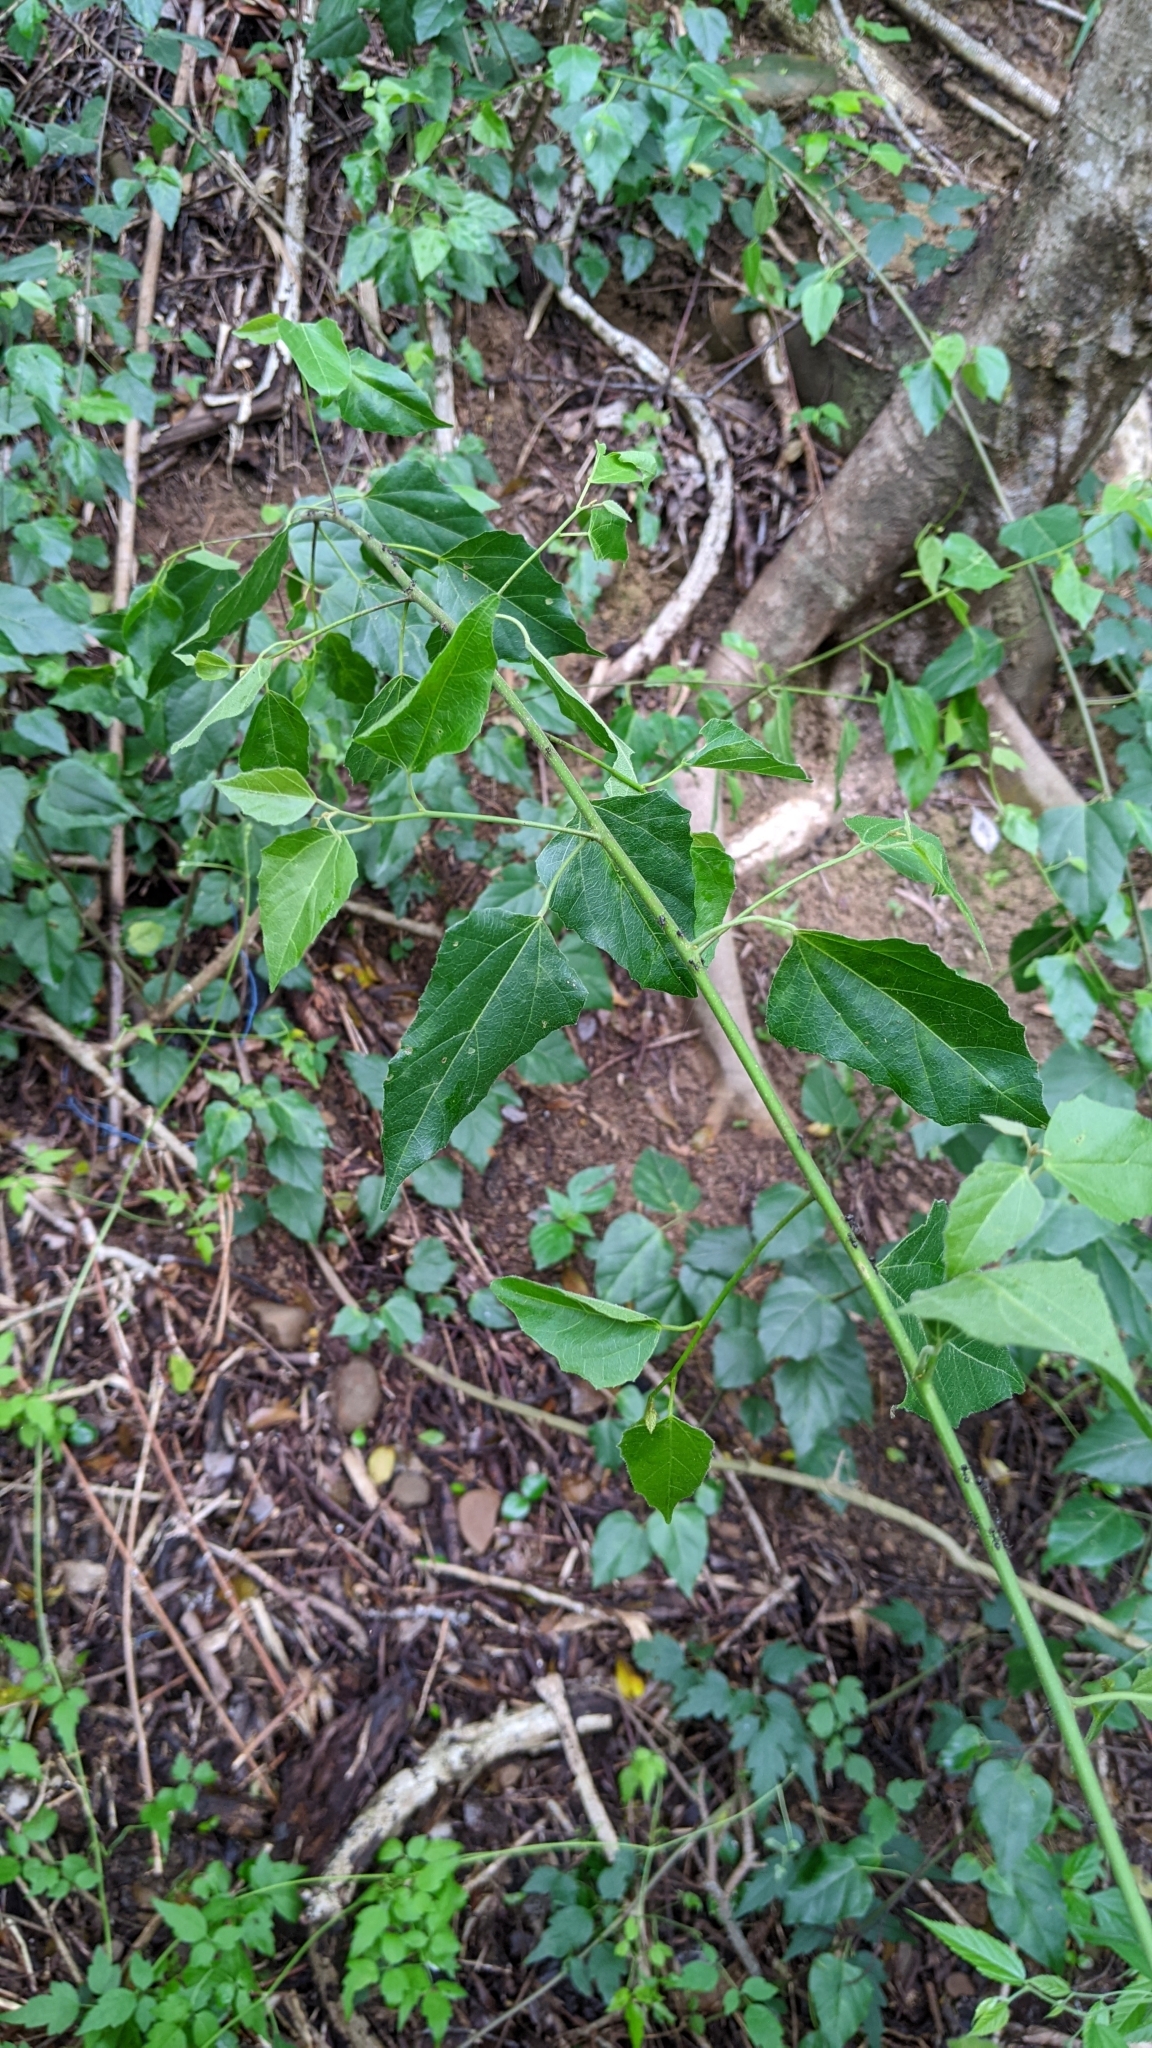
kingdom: Plantae
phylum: Tracheophyta
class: Magnoliopsida
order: Malpighiales
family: Euphorbiaceae
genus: Mallotus
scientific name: Mallotus repandus
